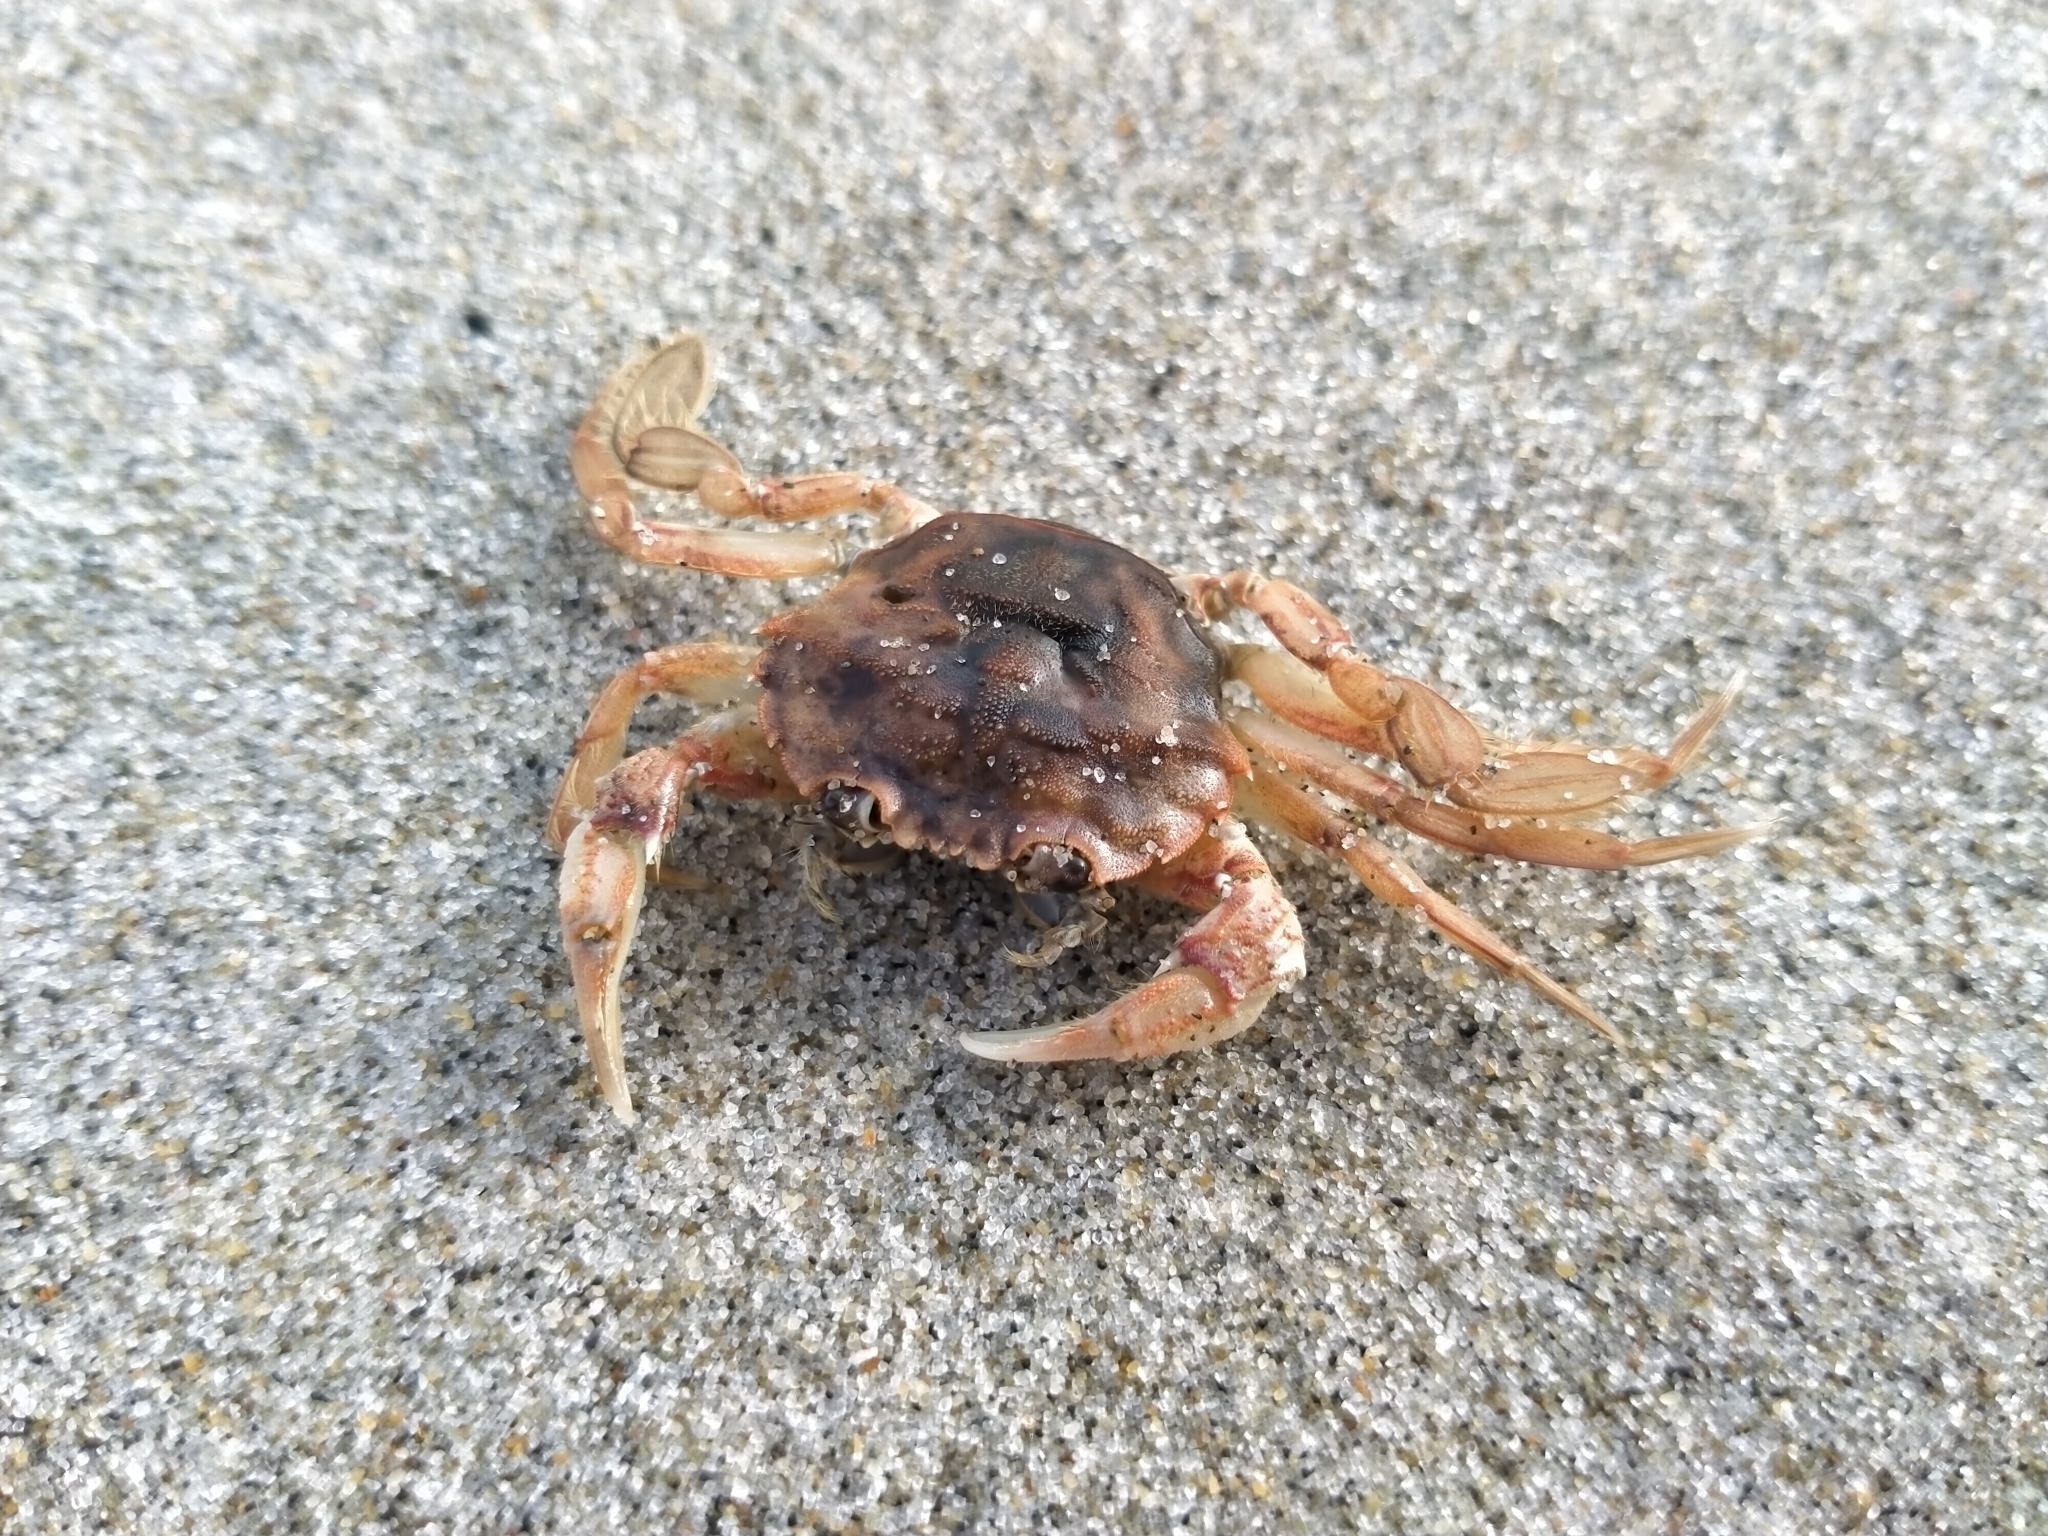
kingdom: Animalia
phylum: Arthropoda
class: Malacostraca
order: Decapoda
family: Geryonidae
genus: Nectocarcinus
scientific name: Nectocarcinus antarcticus
